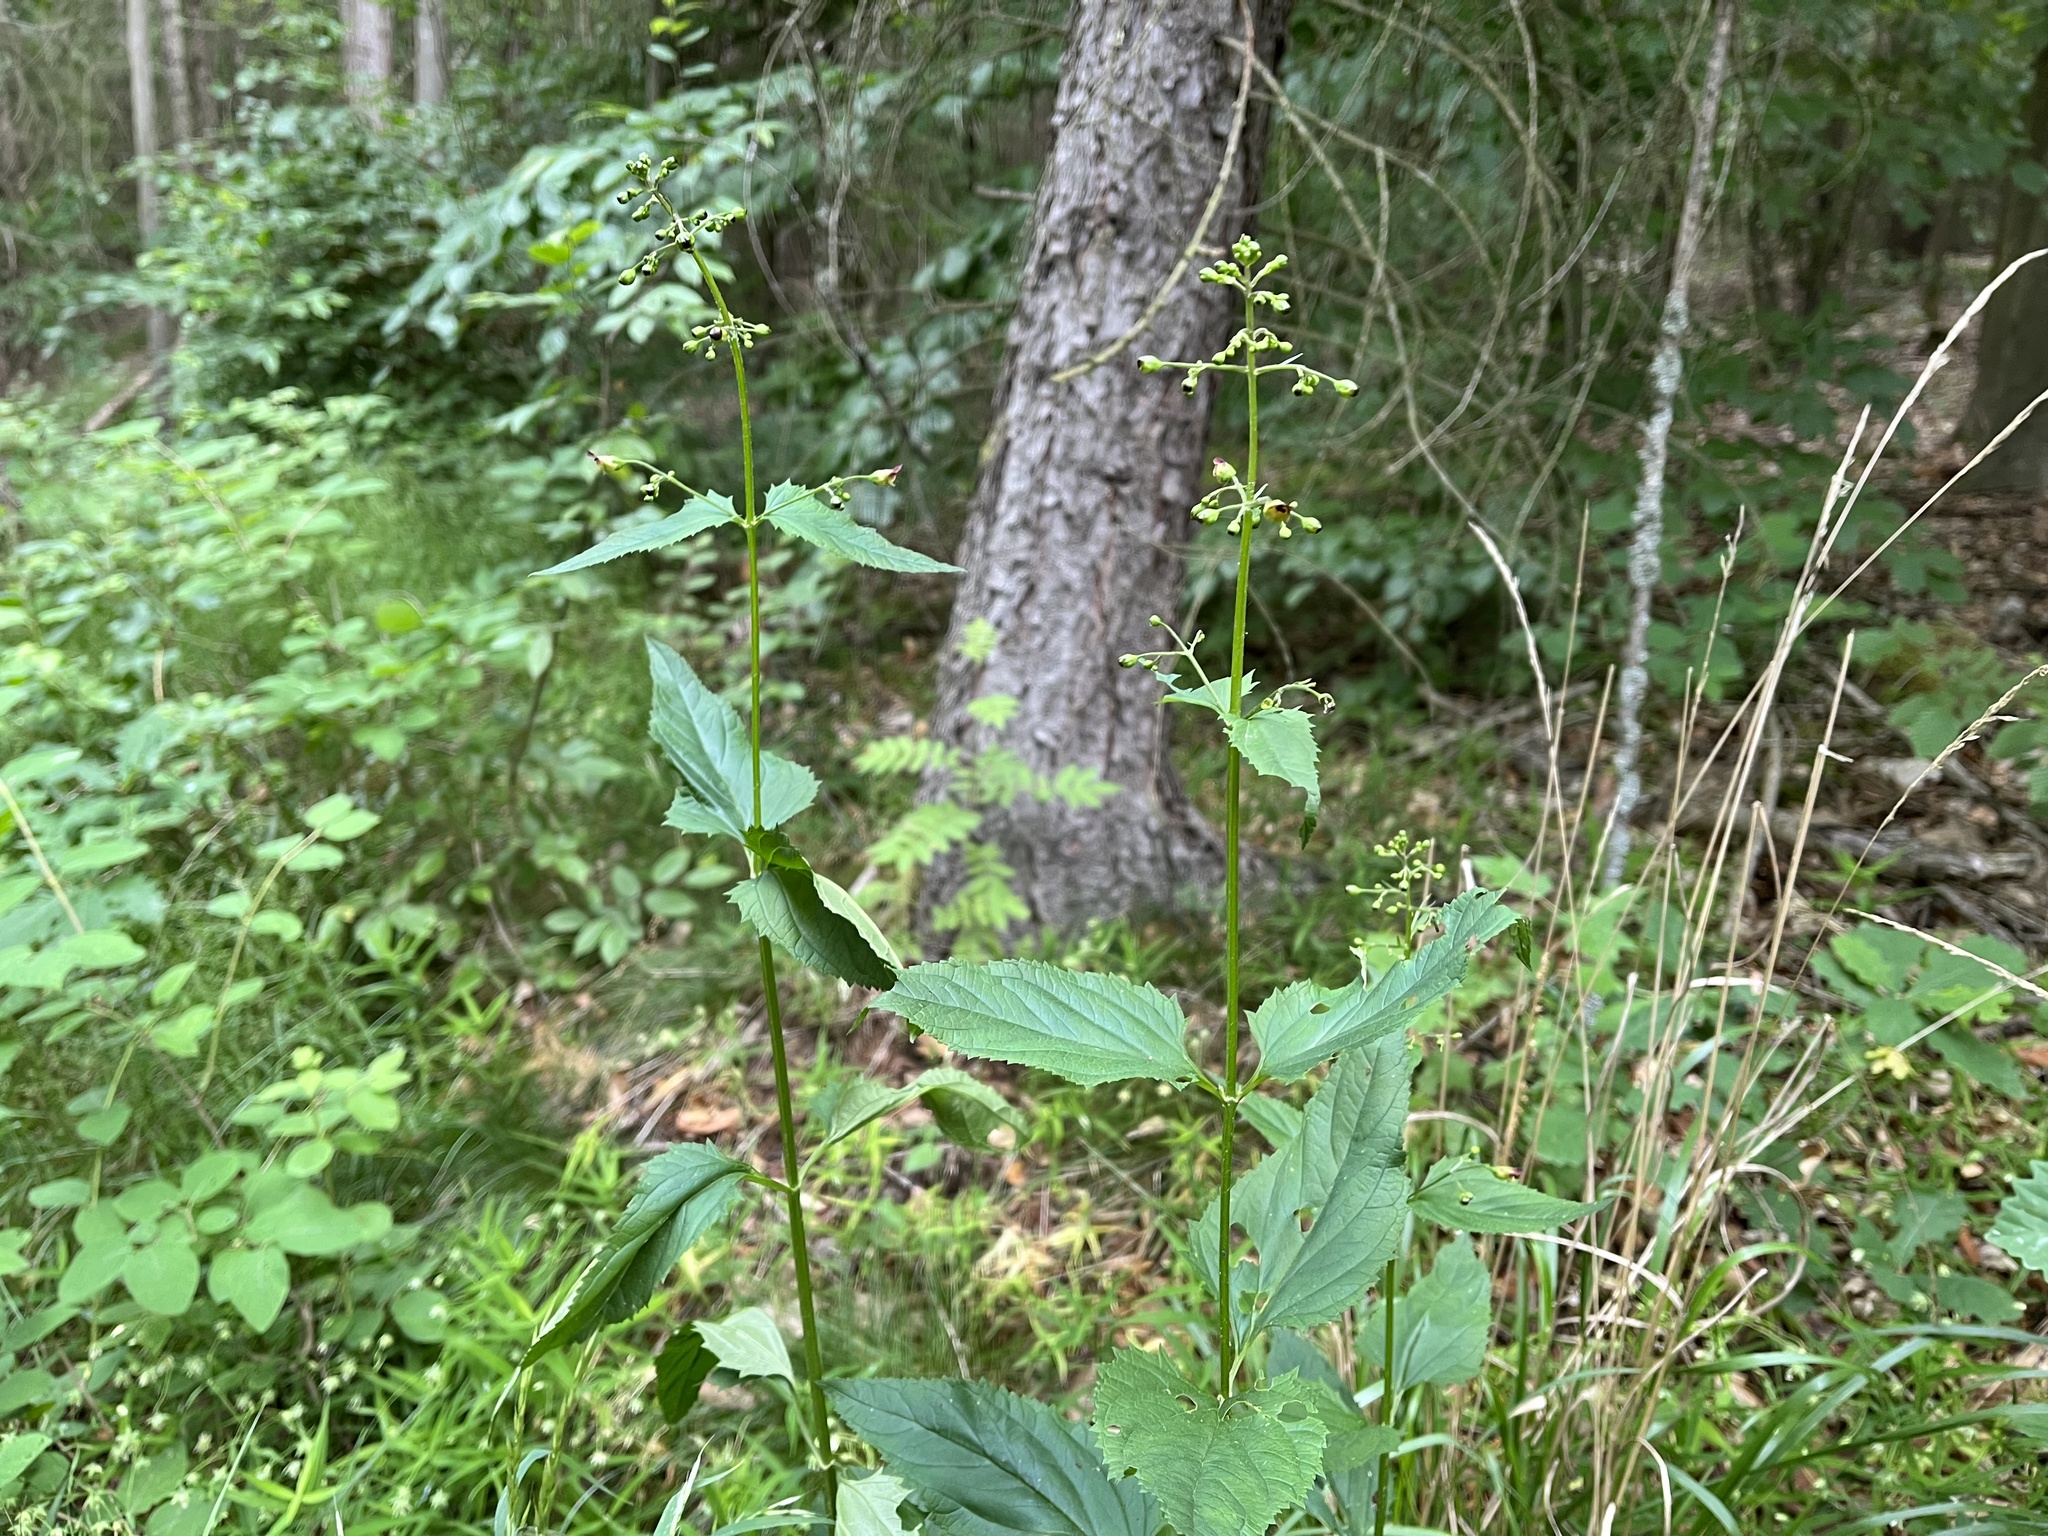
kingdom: Plantae
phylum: Tracheophyta
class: Magnoliopsida
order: Lamiales
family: Scrophulariaceae
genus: Scrophularia
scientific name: Scrophularia nodosa
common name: Common figwort
